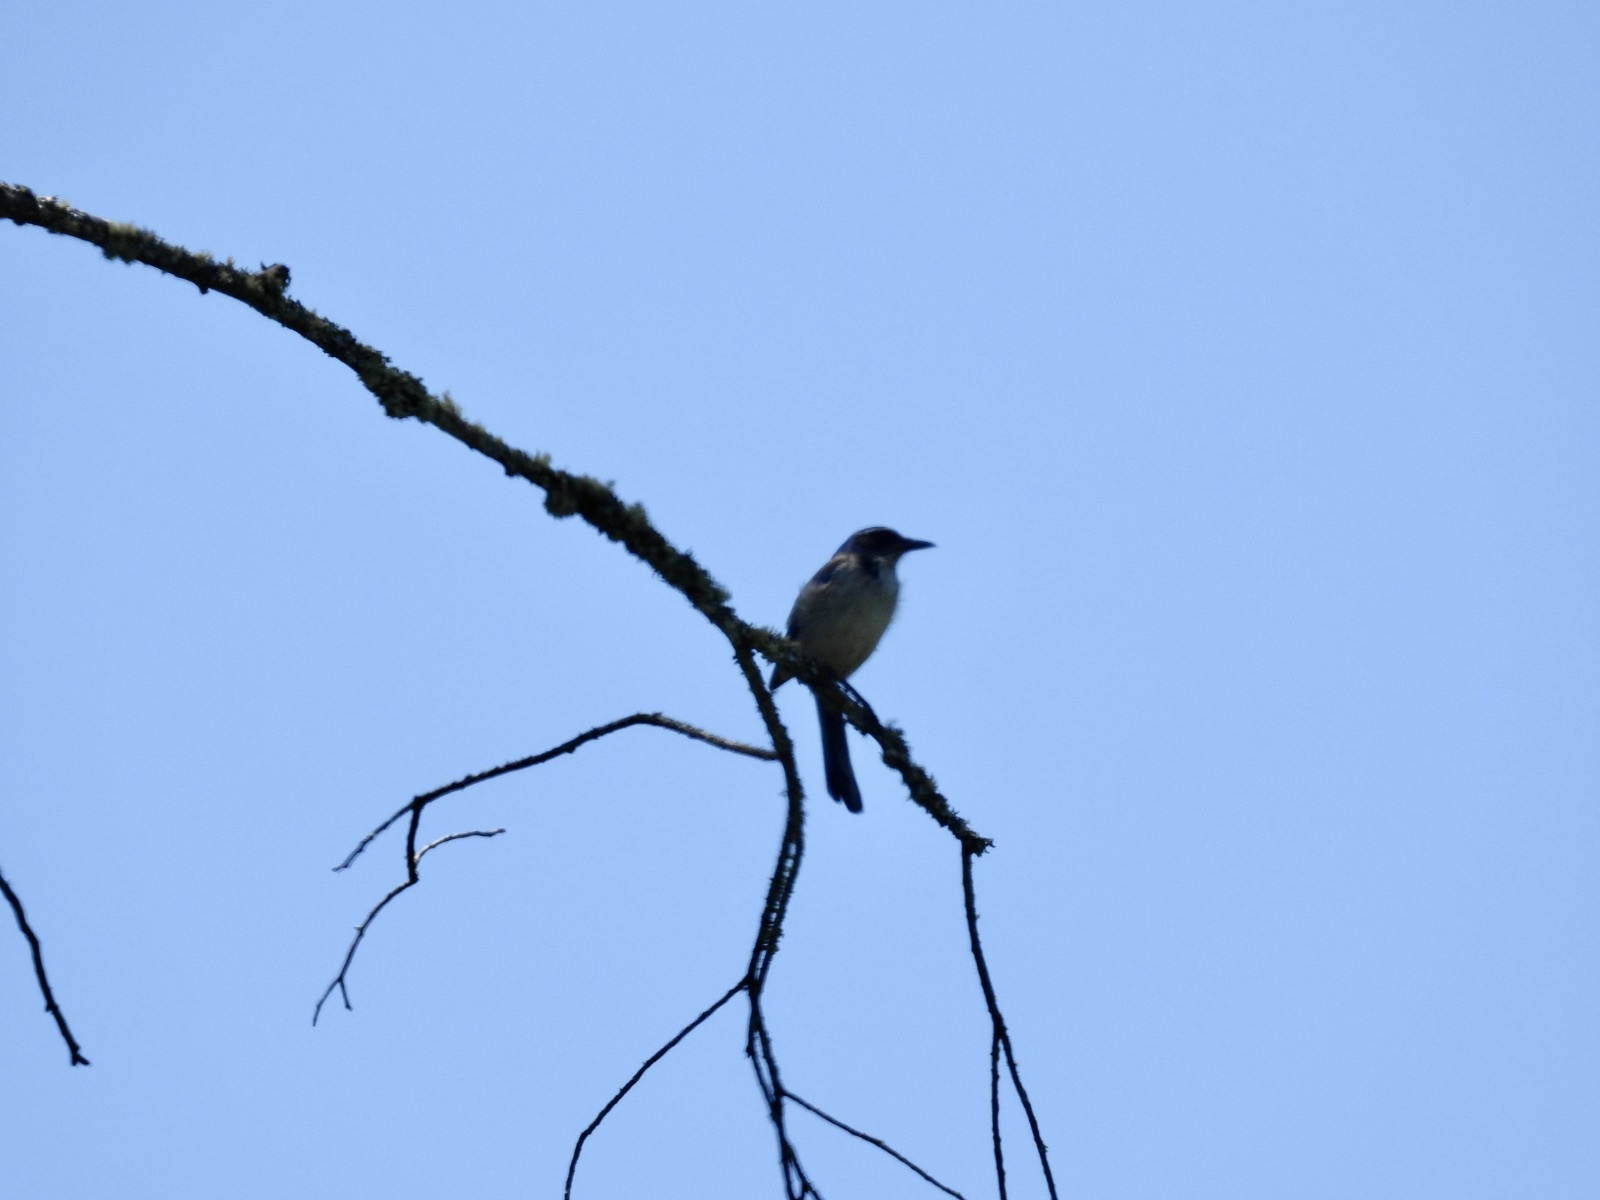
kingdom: Animalia
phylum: Chordata
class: Aves
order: Passeriformes
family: Corvidae
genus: Aphelocoma
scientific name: Aphelocoma californica
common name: California scrub-jay
